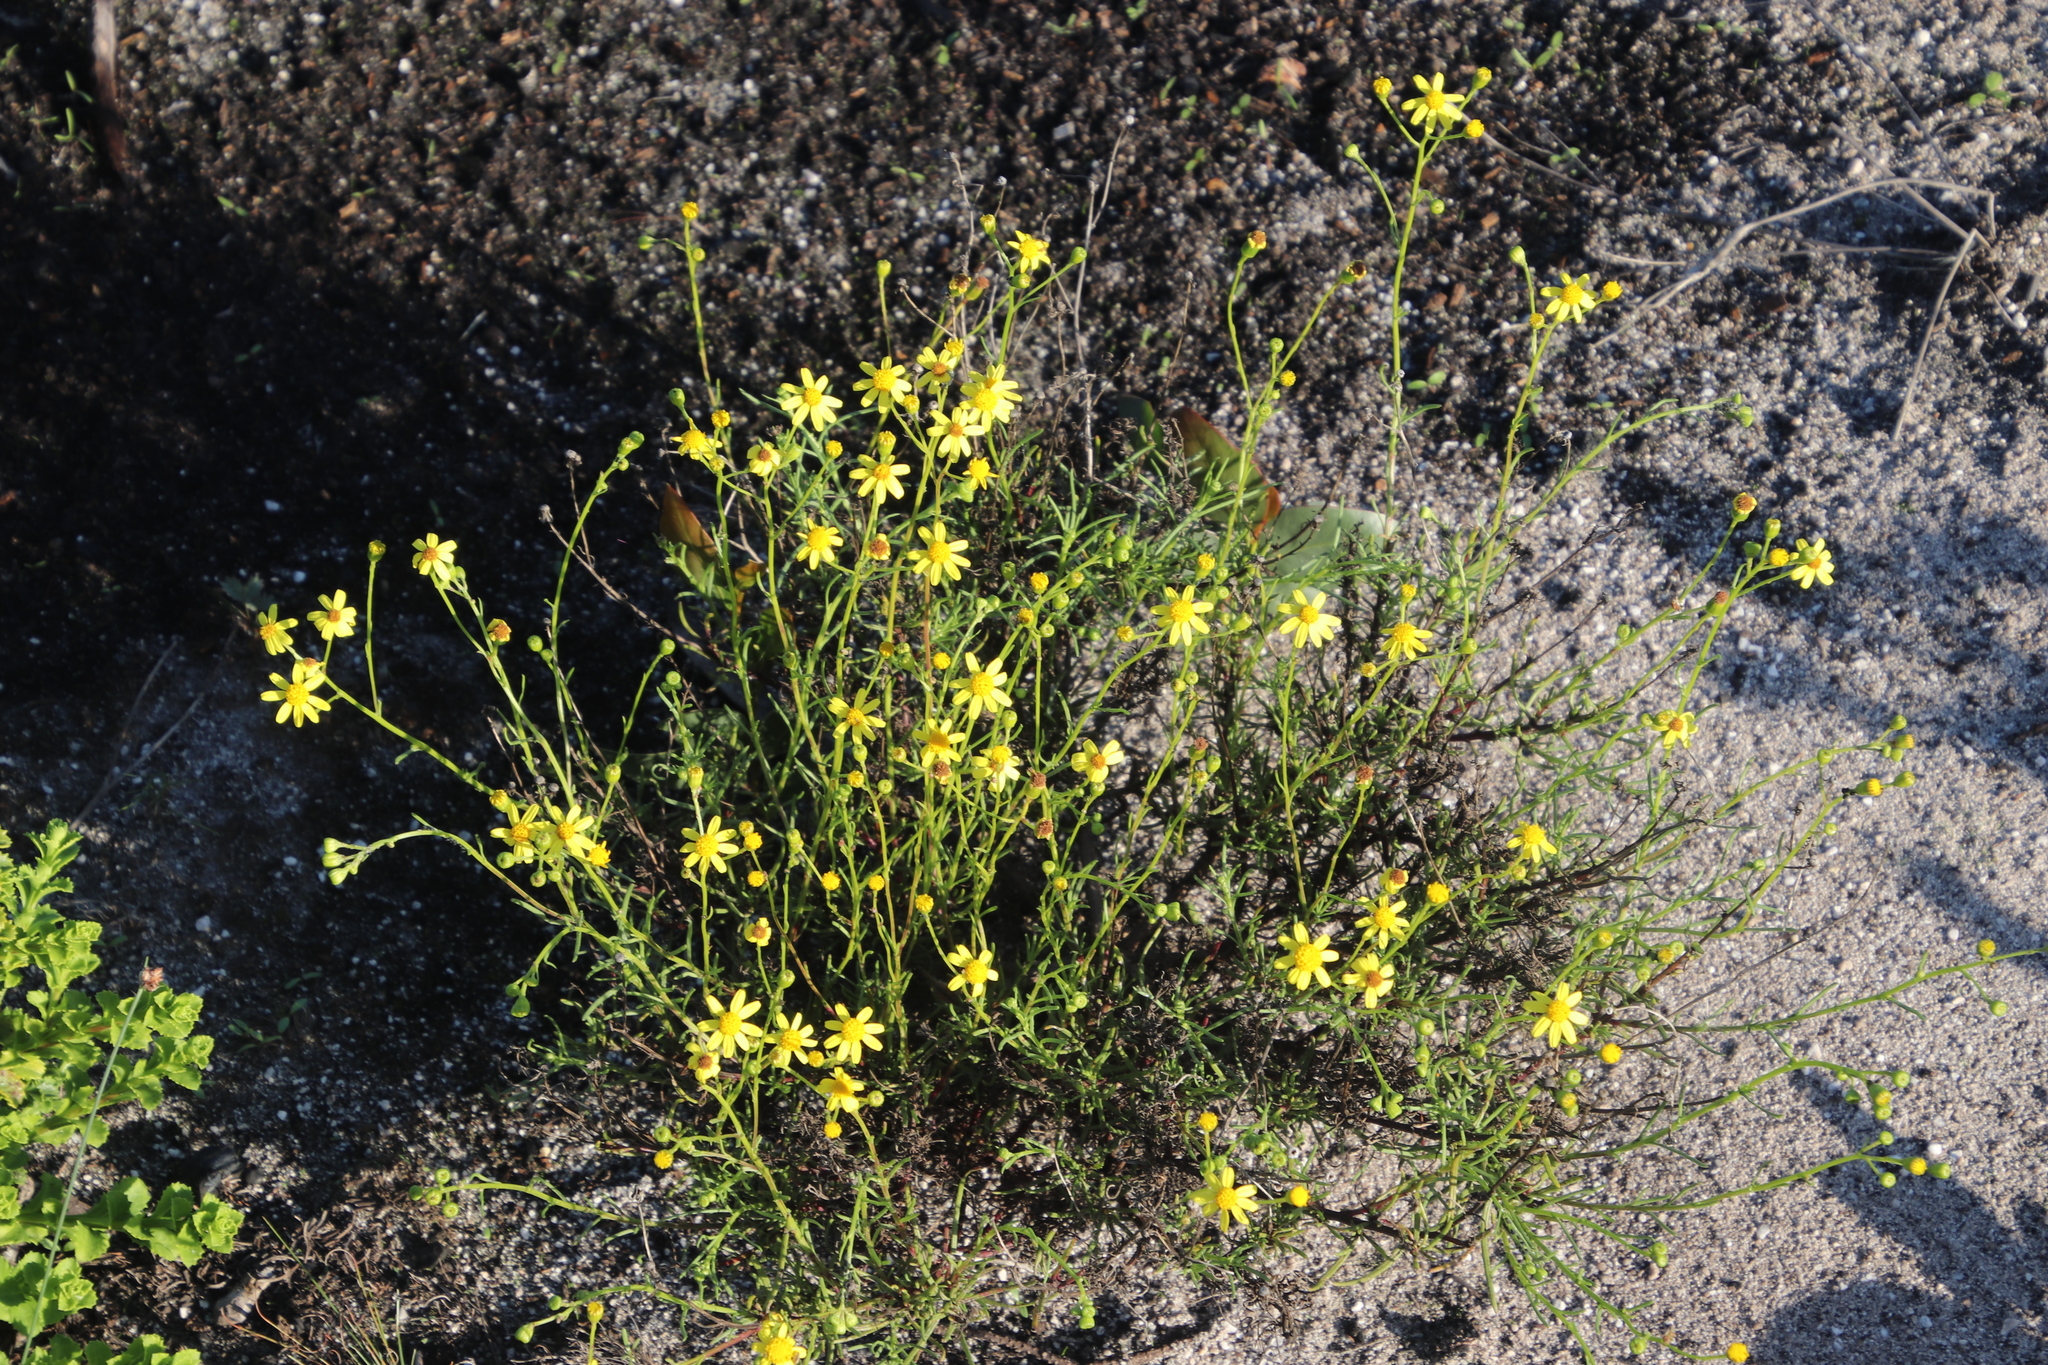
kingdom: Plantae
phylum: Tracheophyta
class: Magnoliopsida
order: Asterales
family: Asteraceae
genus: Senecio
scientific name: Senecio burchellii
